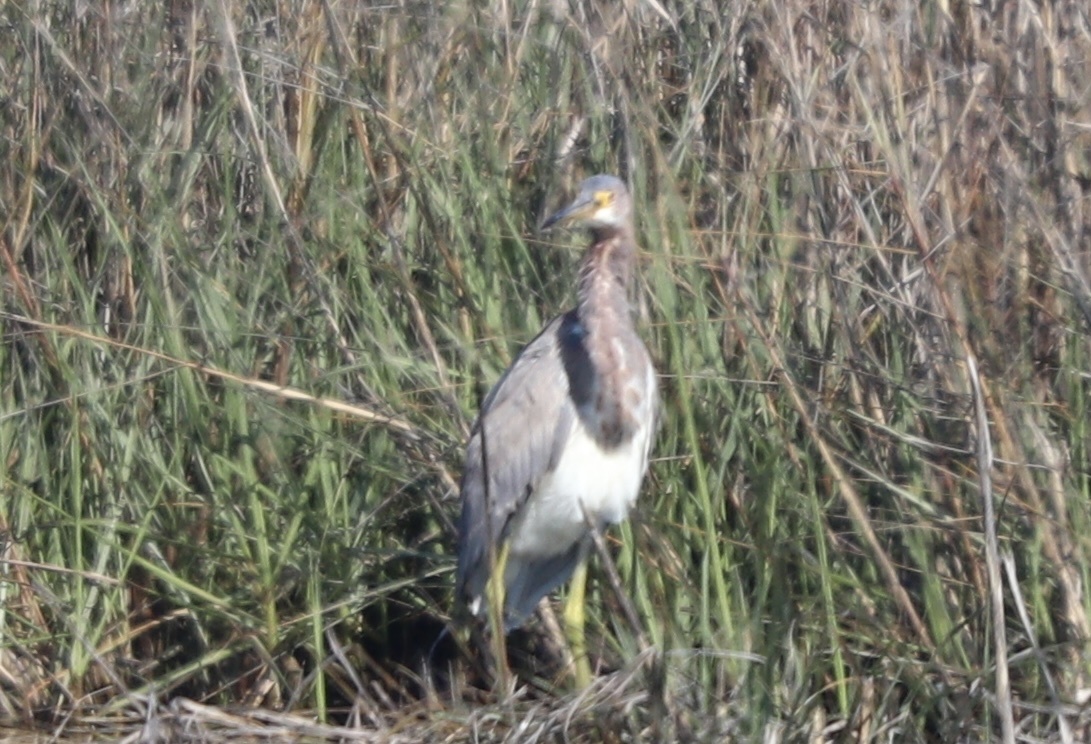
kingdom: Animalia
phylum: Chordata
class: Aves
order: Pelecaniformes
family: Ardeidae
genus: Egretta
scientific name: Egretta tricolor
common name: Tricolored heron
